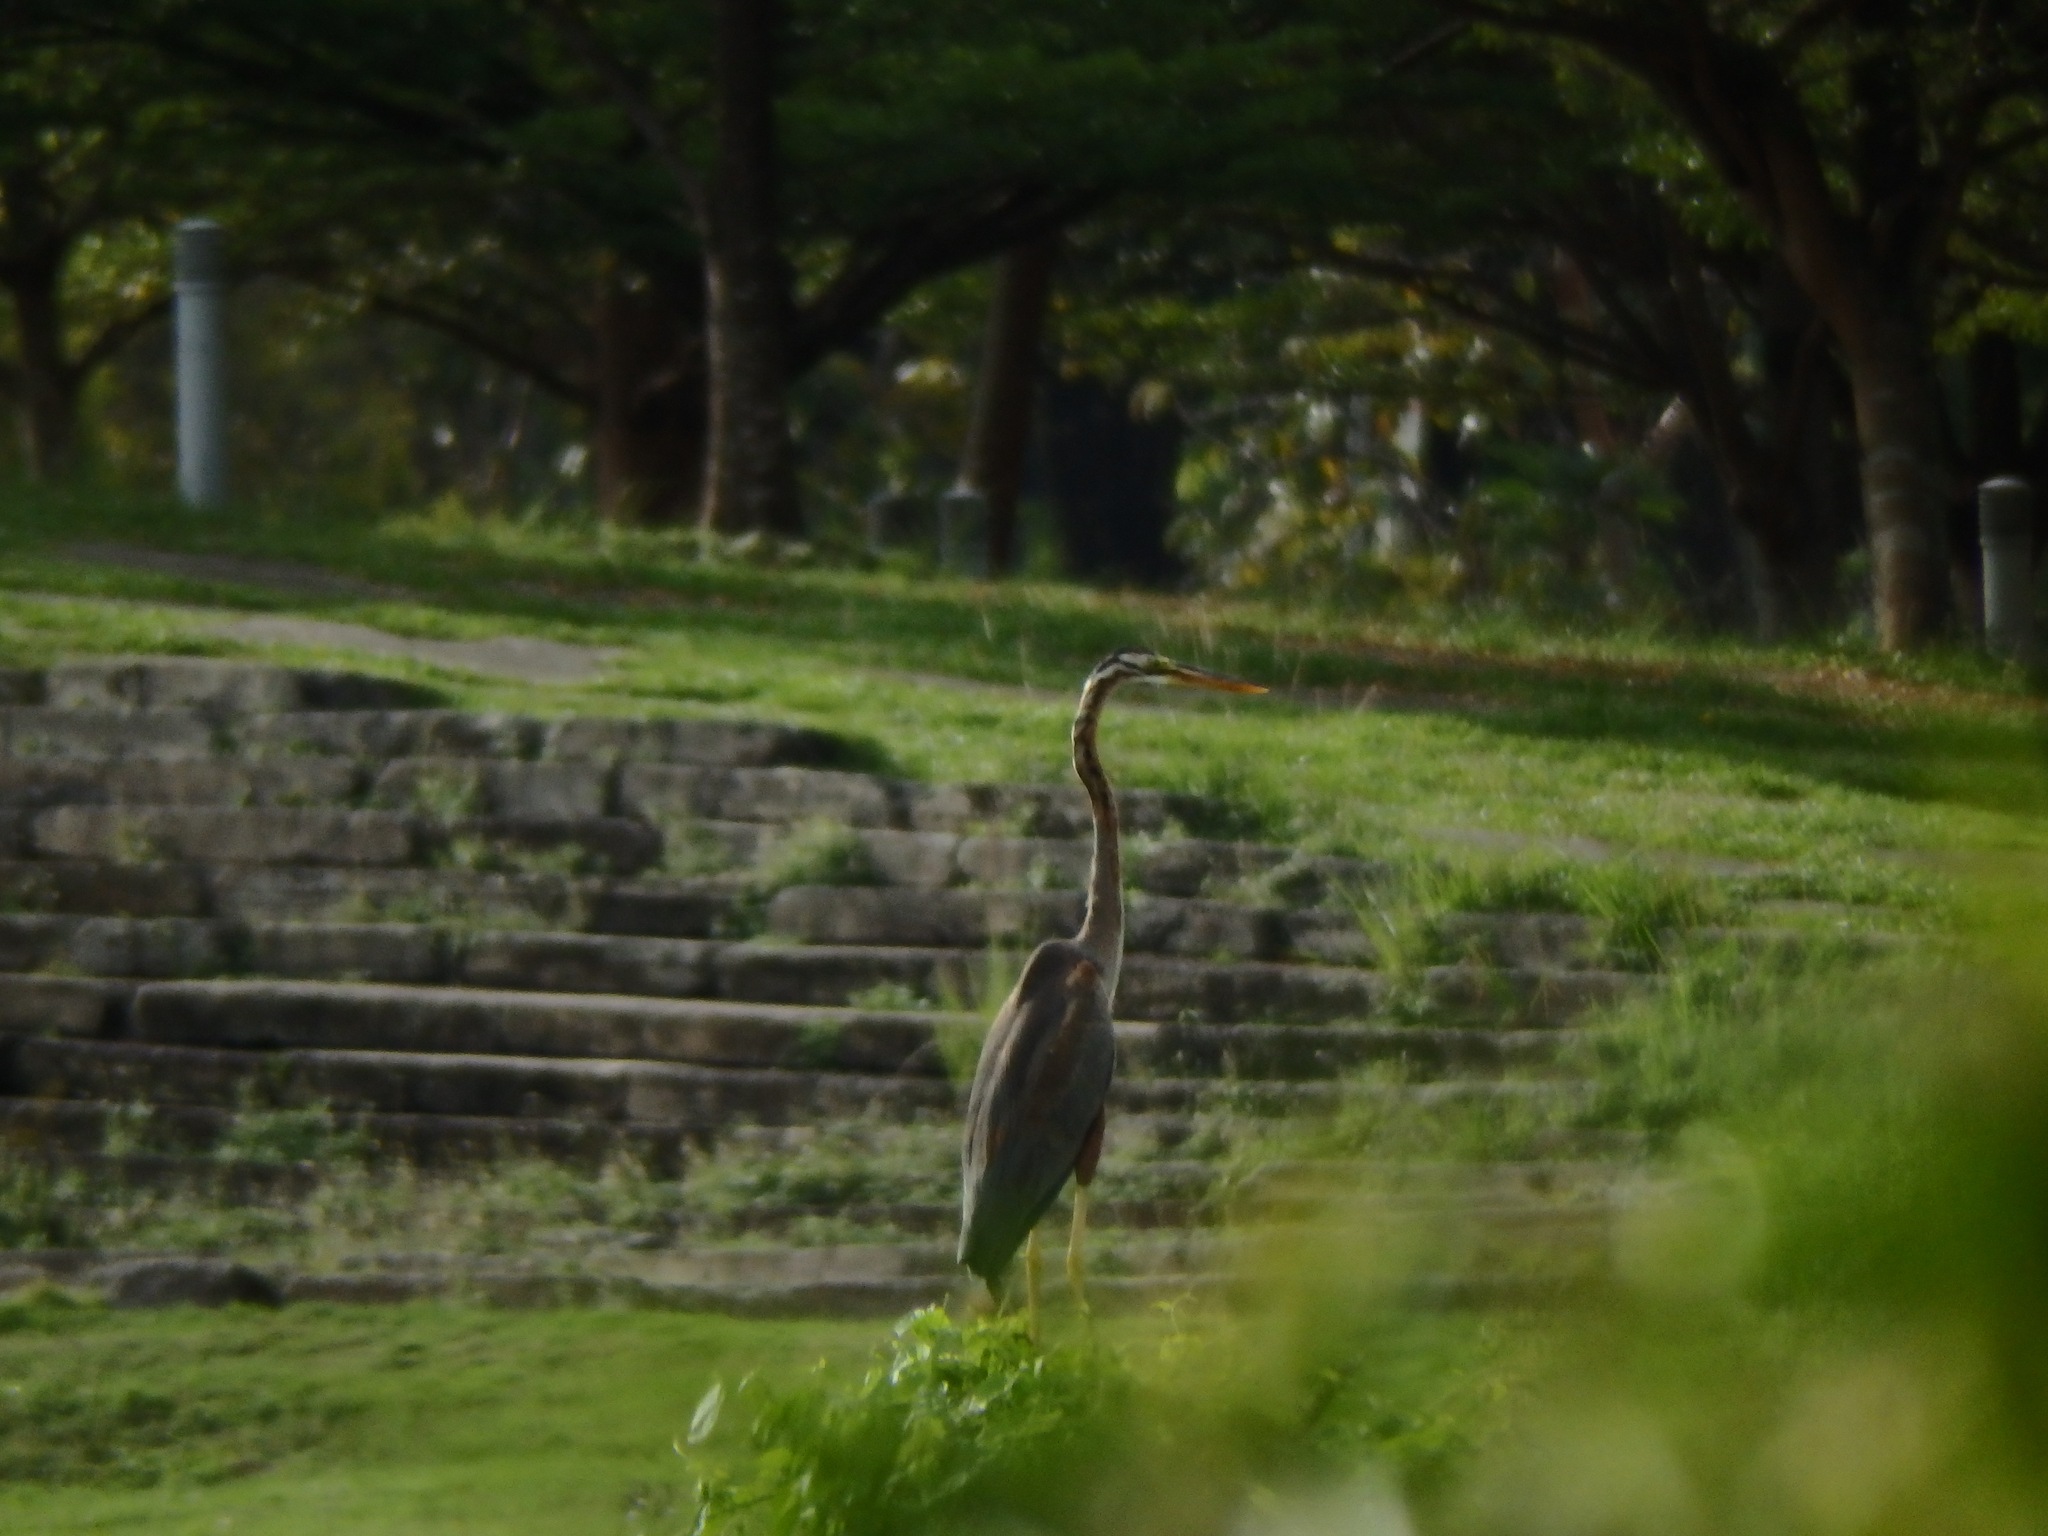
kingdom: Animalia
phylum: Chordata
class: Aves
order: Pelecaniformes
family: Ardeidae
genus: Ardea
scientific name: Ardea purpurea
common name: Purple heron
